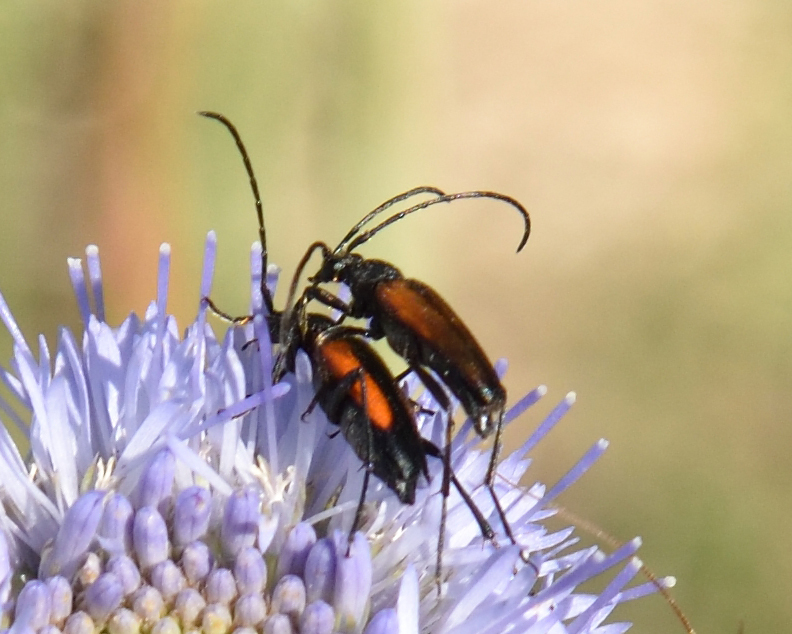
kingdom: Animalia
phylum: Arthropoda
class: Insecta
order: Coleoptera
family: Cerambycidae
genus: Stenurella
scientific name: Stenurella melanura
